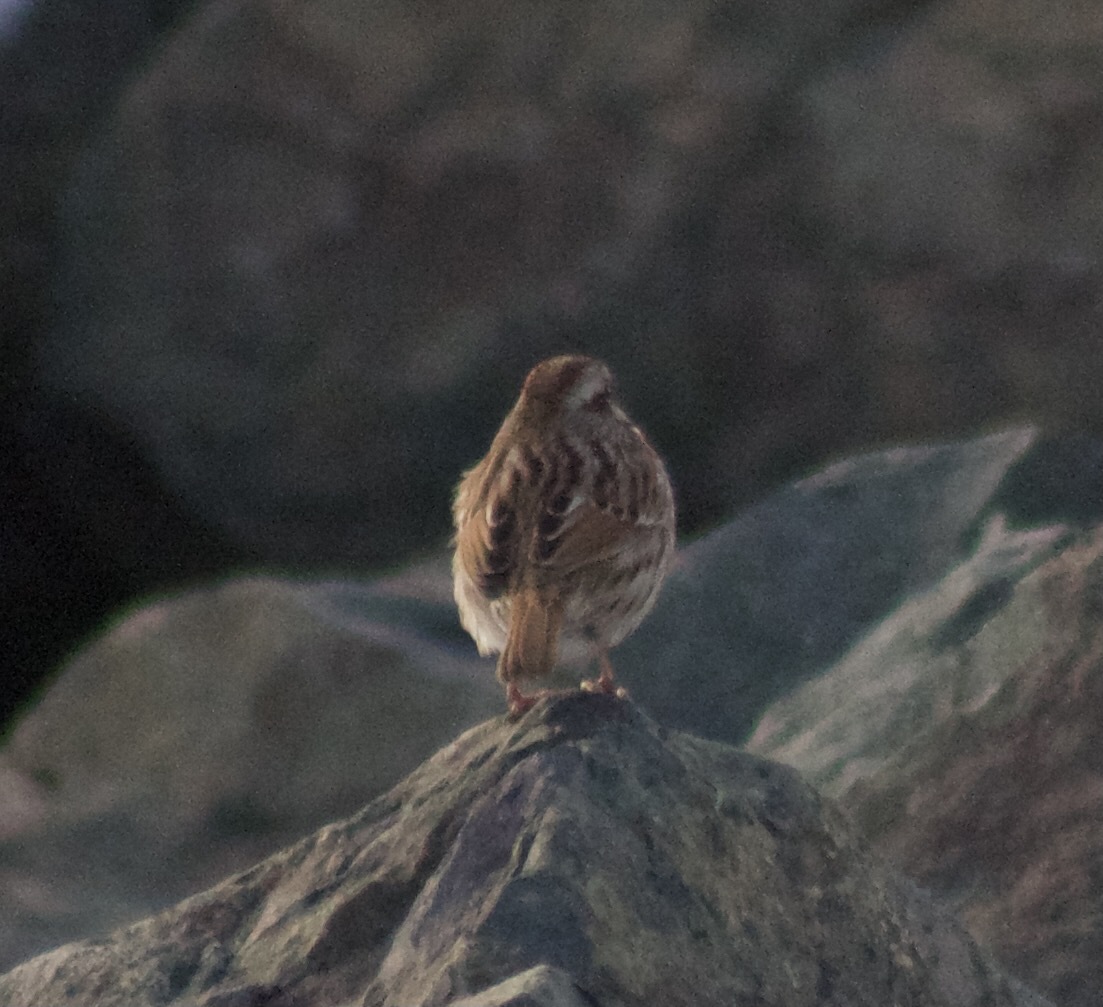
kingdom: Animalia
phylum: Chordata
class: Aves
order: Passeriformes
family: Passerellidae
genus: Melospiza
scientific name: Melospiza melodia
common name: Song sparrow
